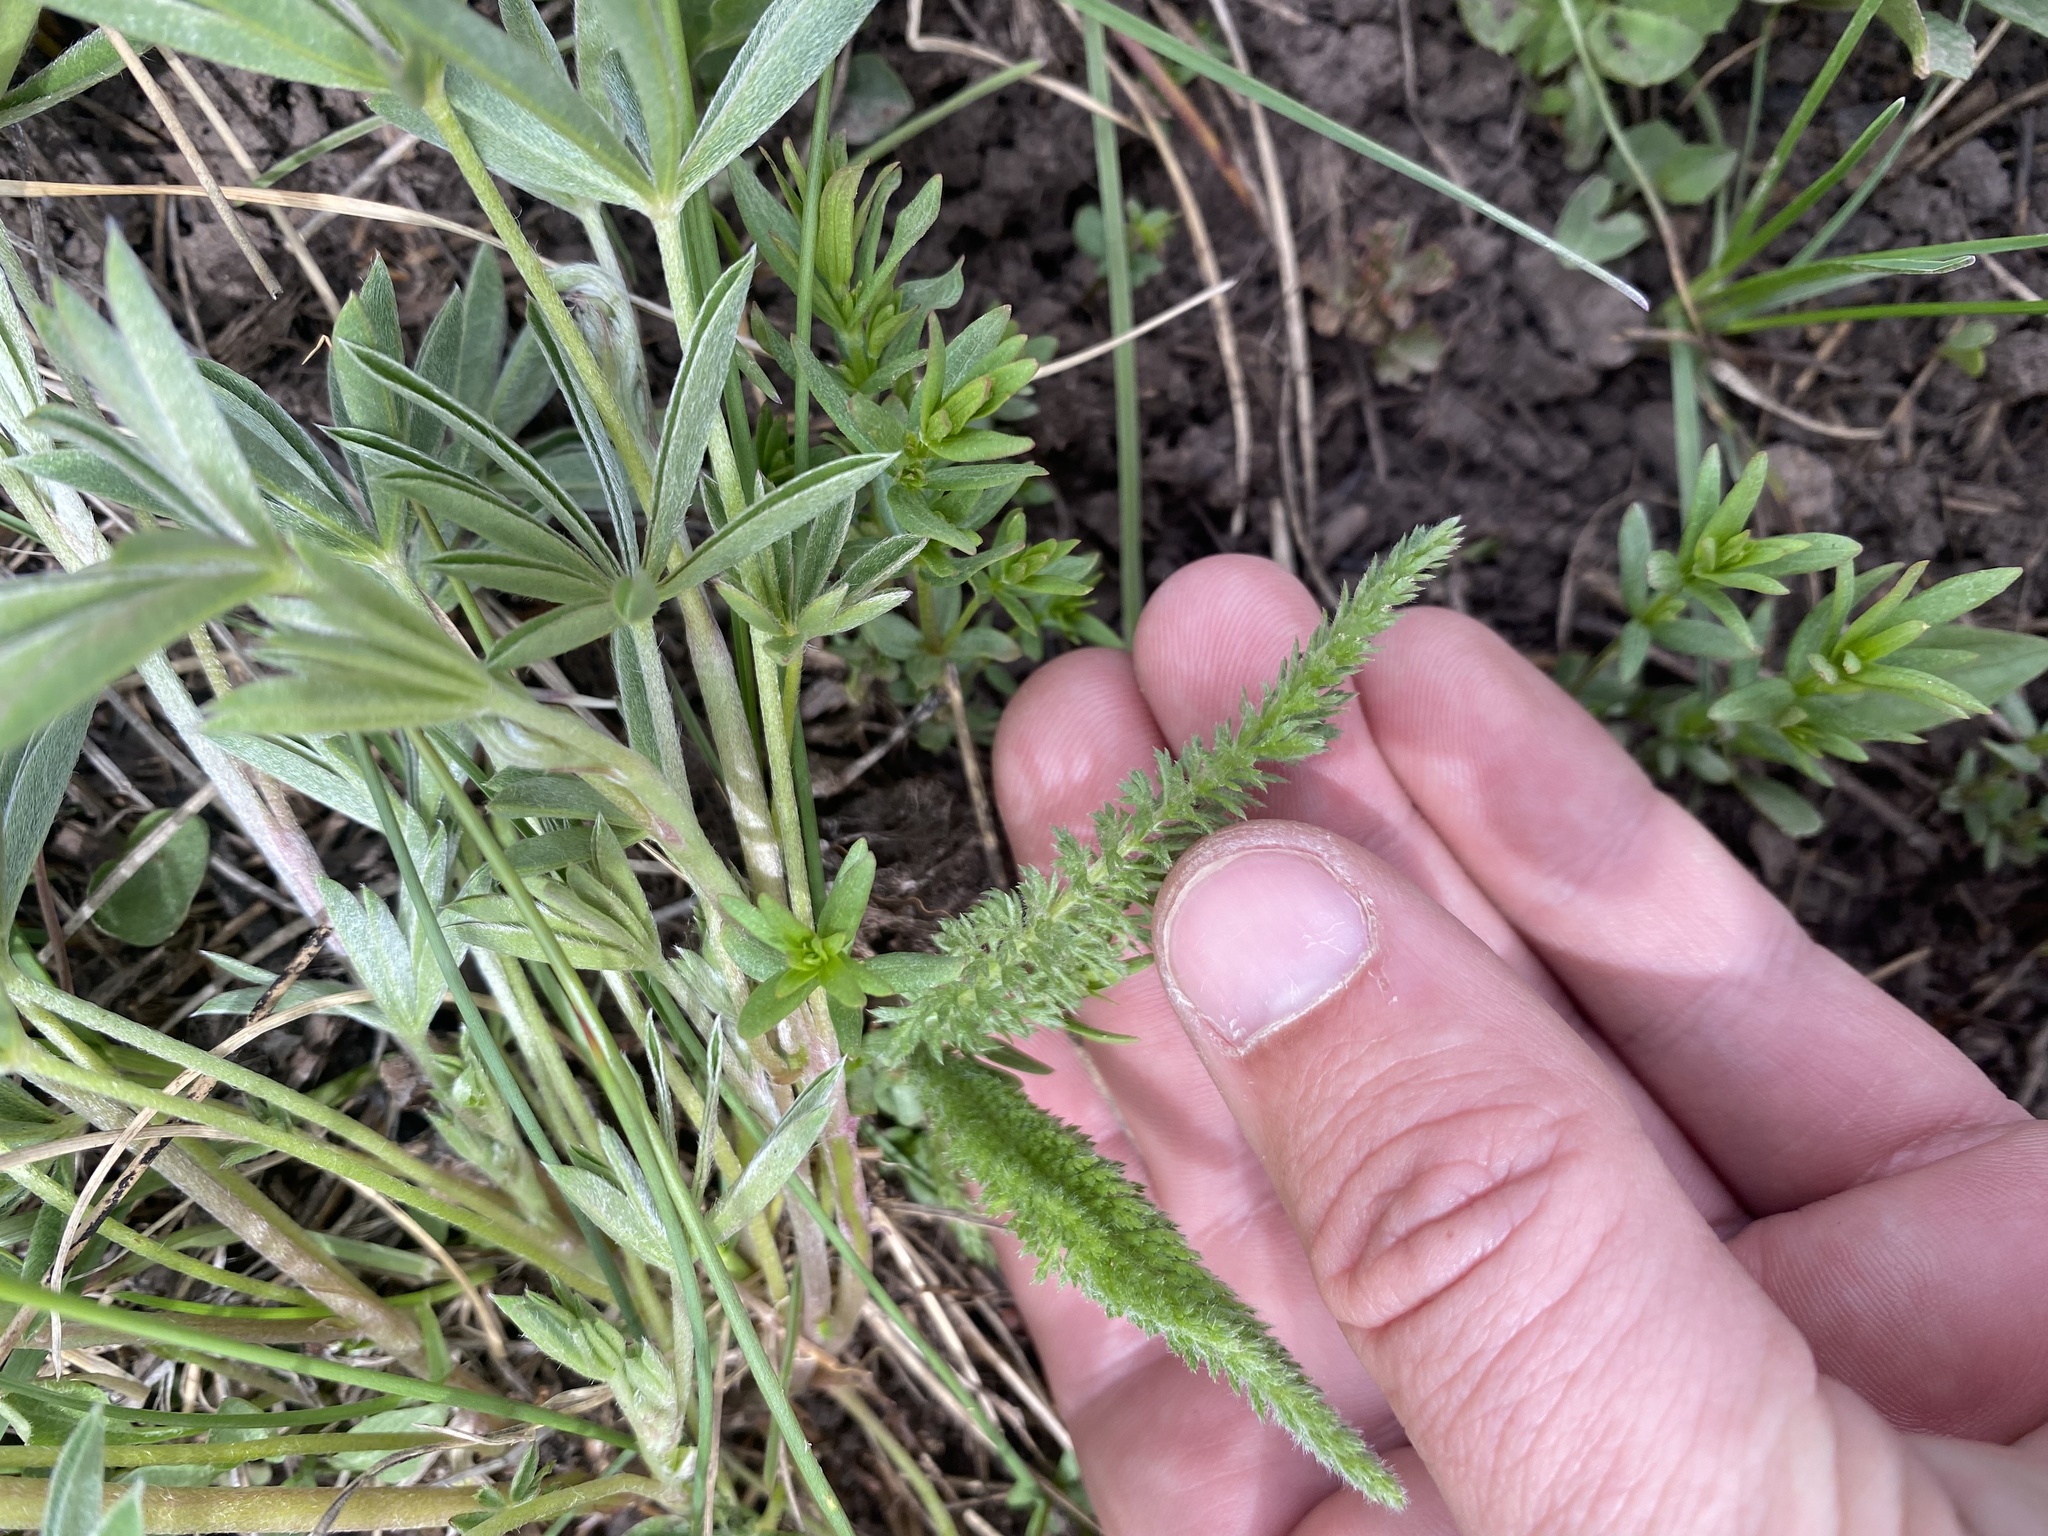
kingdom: Plantae
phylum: Tracheophyta
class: Magnoliopsida
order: Asterales
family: Asteraceae
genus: Achillea
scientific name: Achillea millefolium
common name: Yarrow
